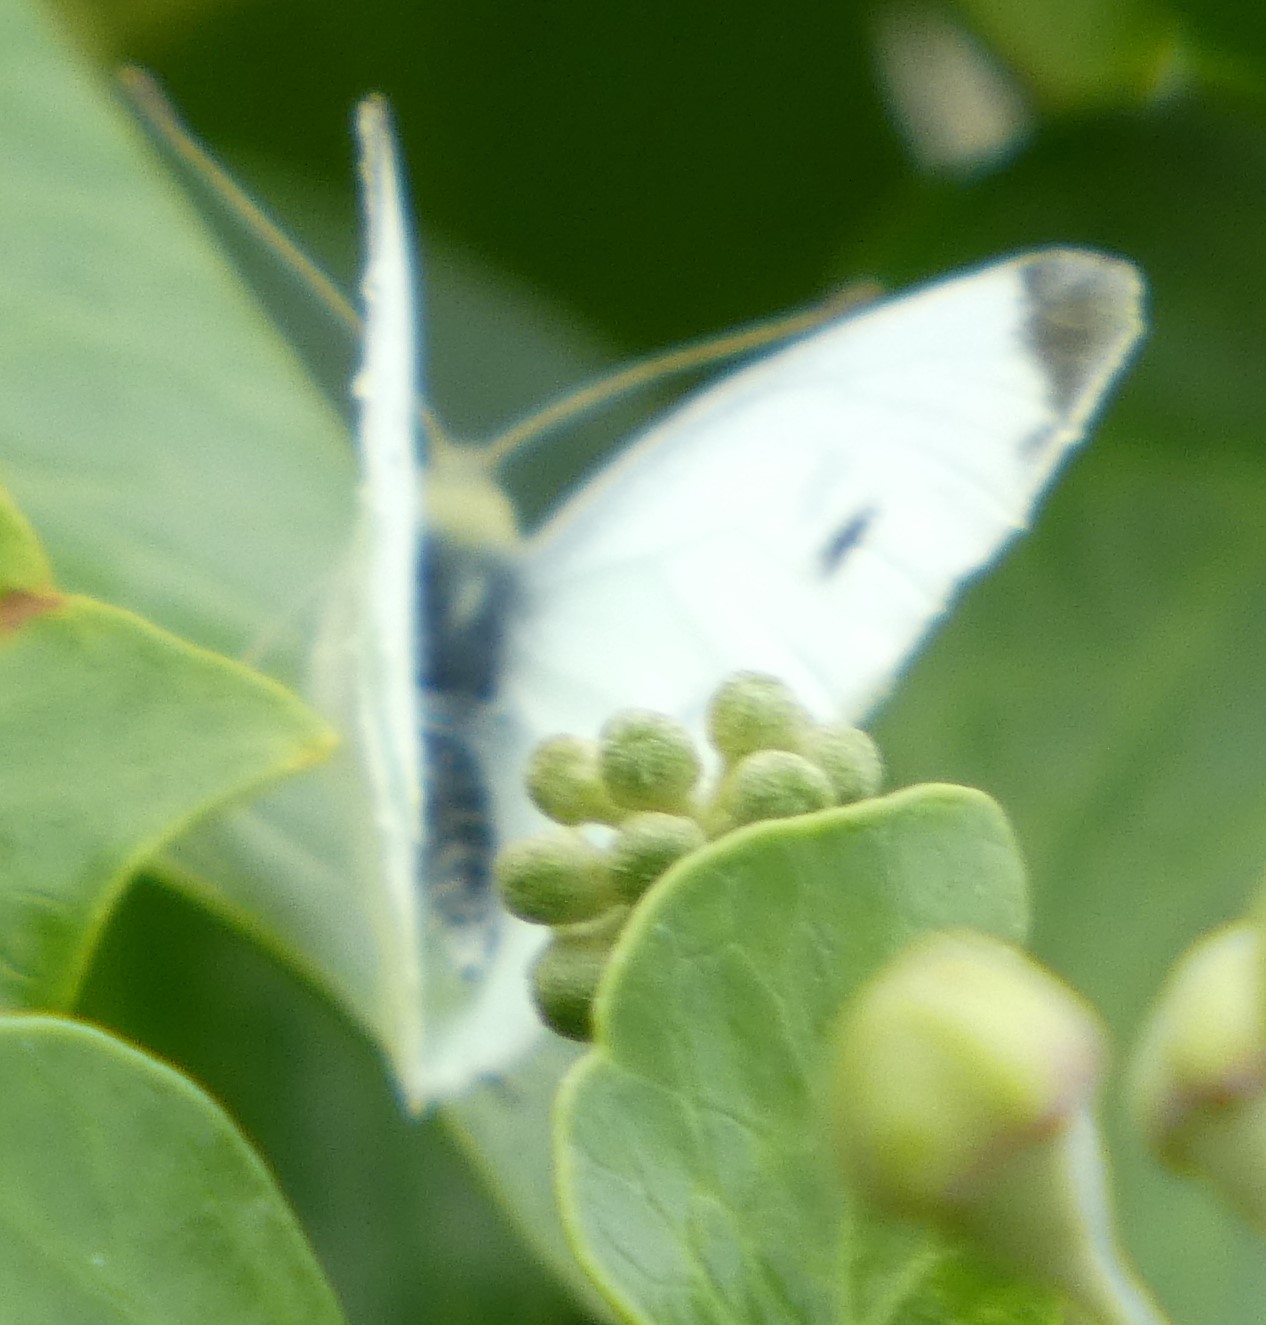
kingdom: Animalia
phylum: Arthropoda
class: Insecta
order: Lepidoptera
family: Pieridae
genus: Pieris
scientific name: Pieris rapae
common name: Small white
